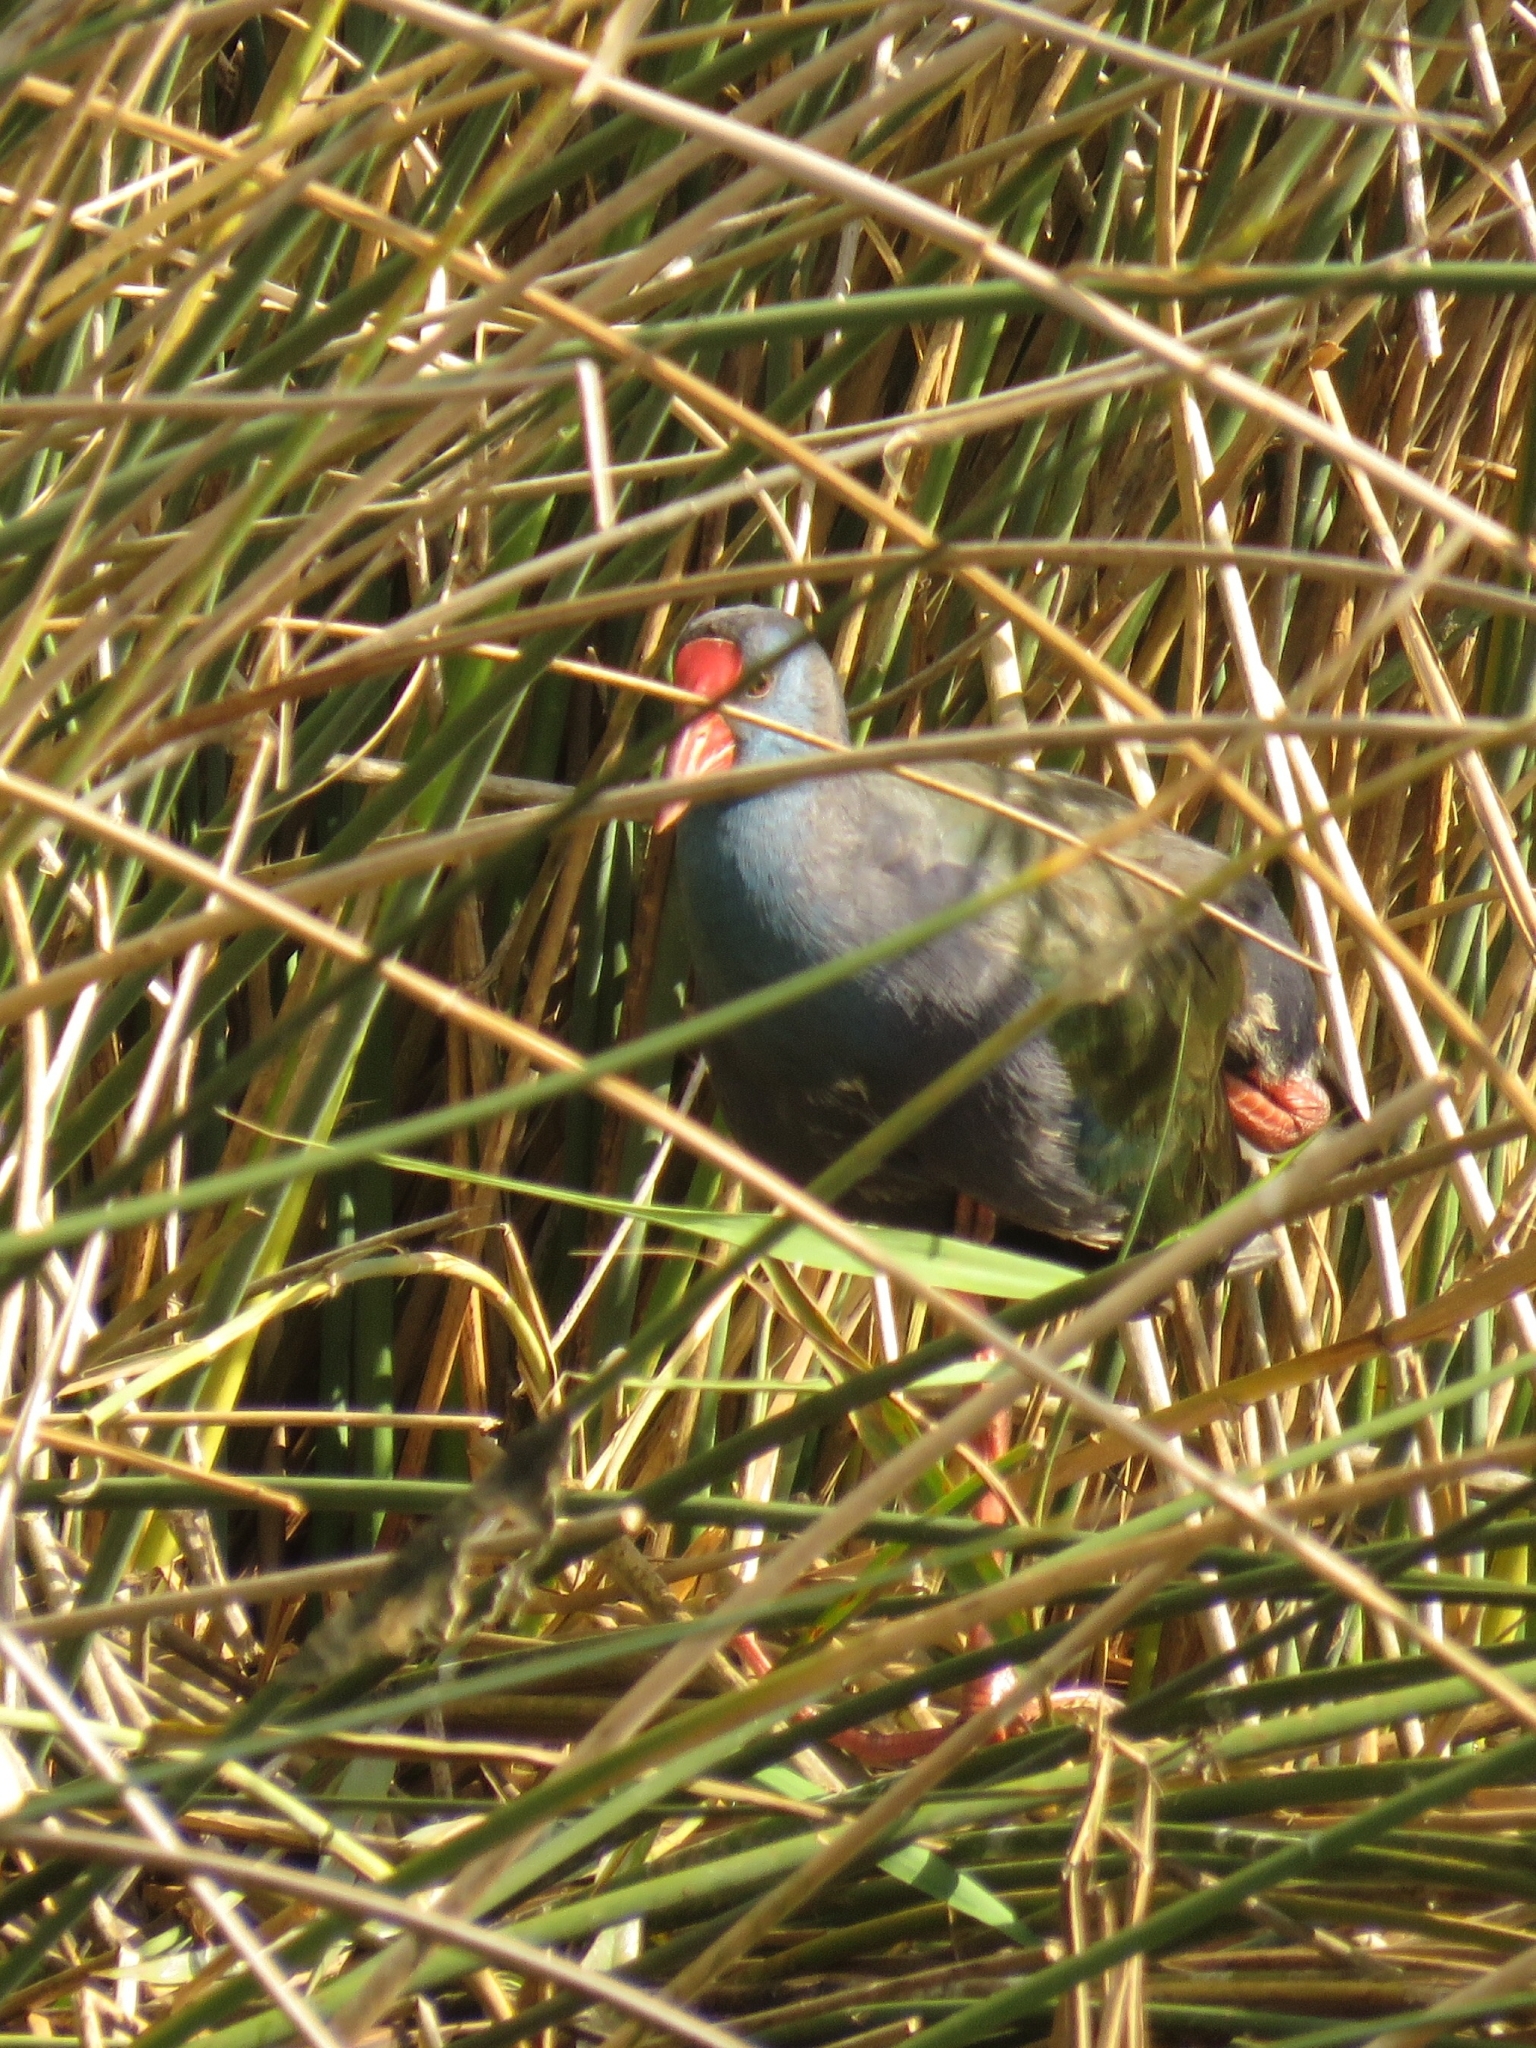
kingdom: Animalia
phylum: Chordata
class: Aves
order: Gruiformes
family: Rallidae
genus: Porphyrio
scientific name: Porphyrio porphyrio
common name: Purple swamphen
